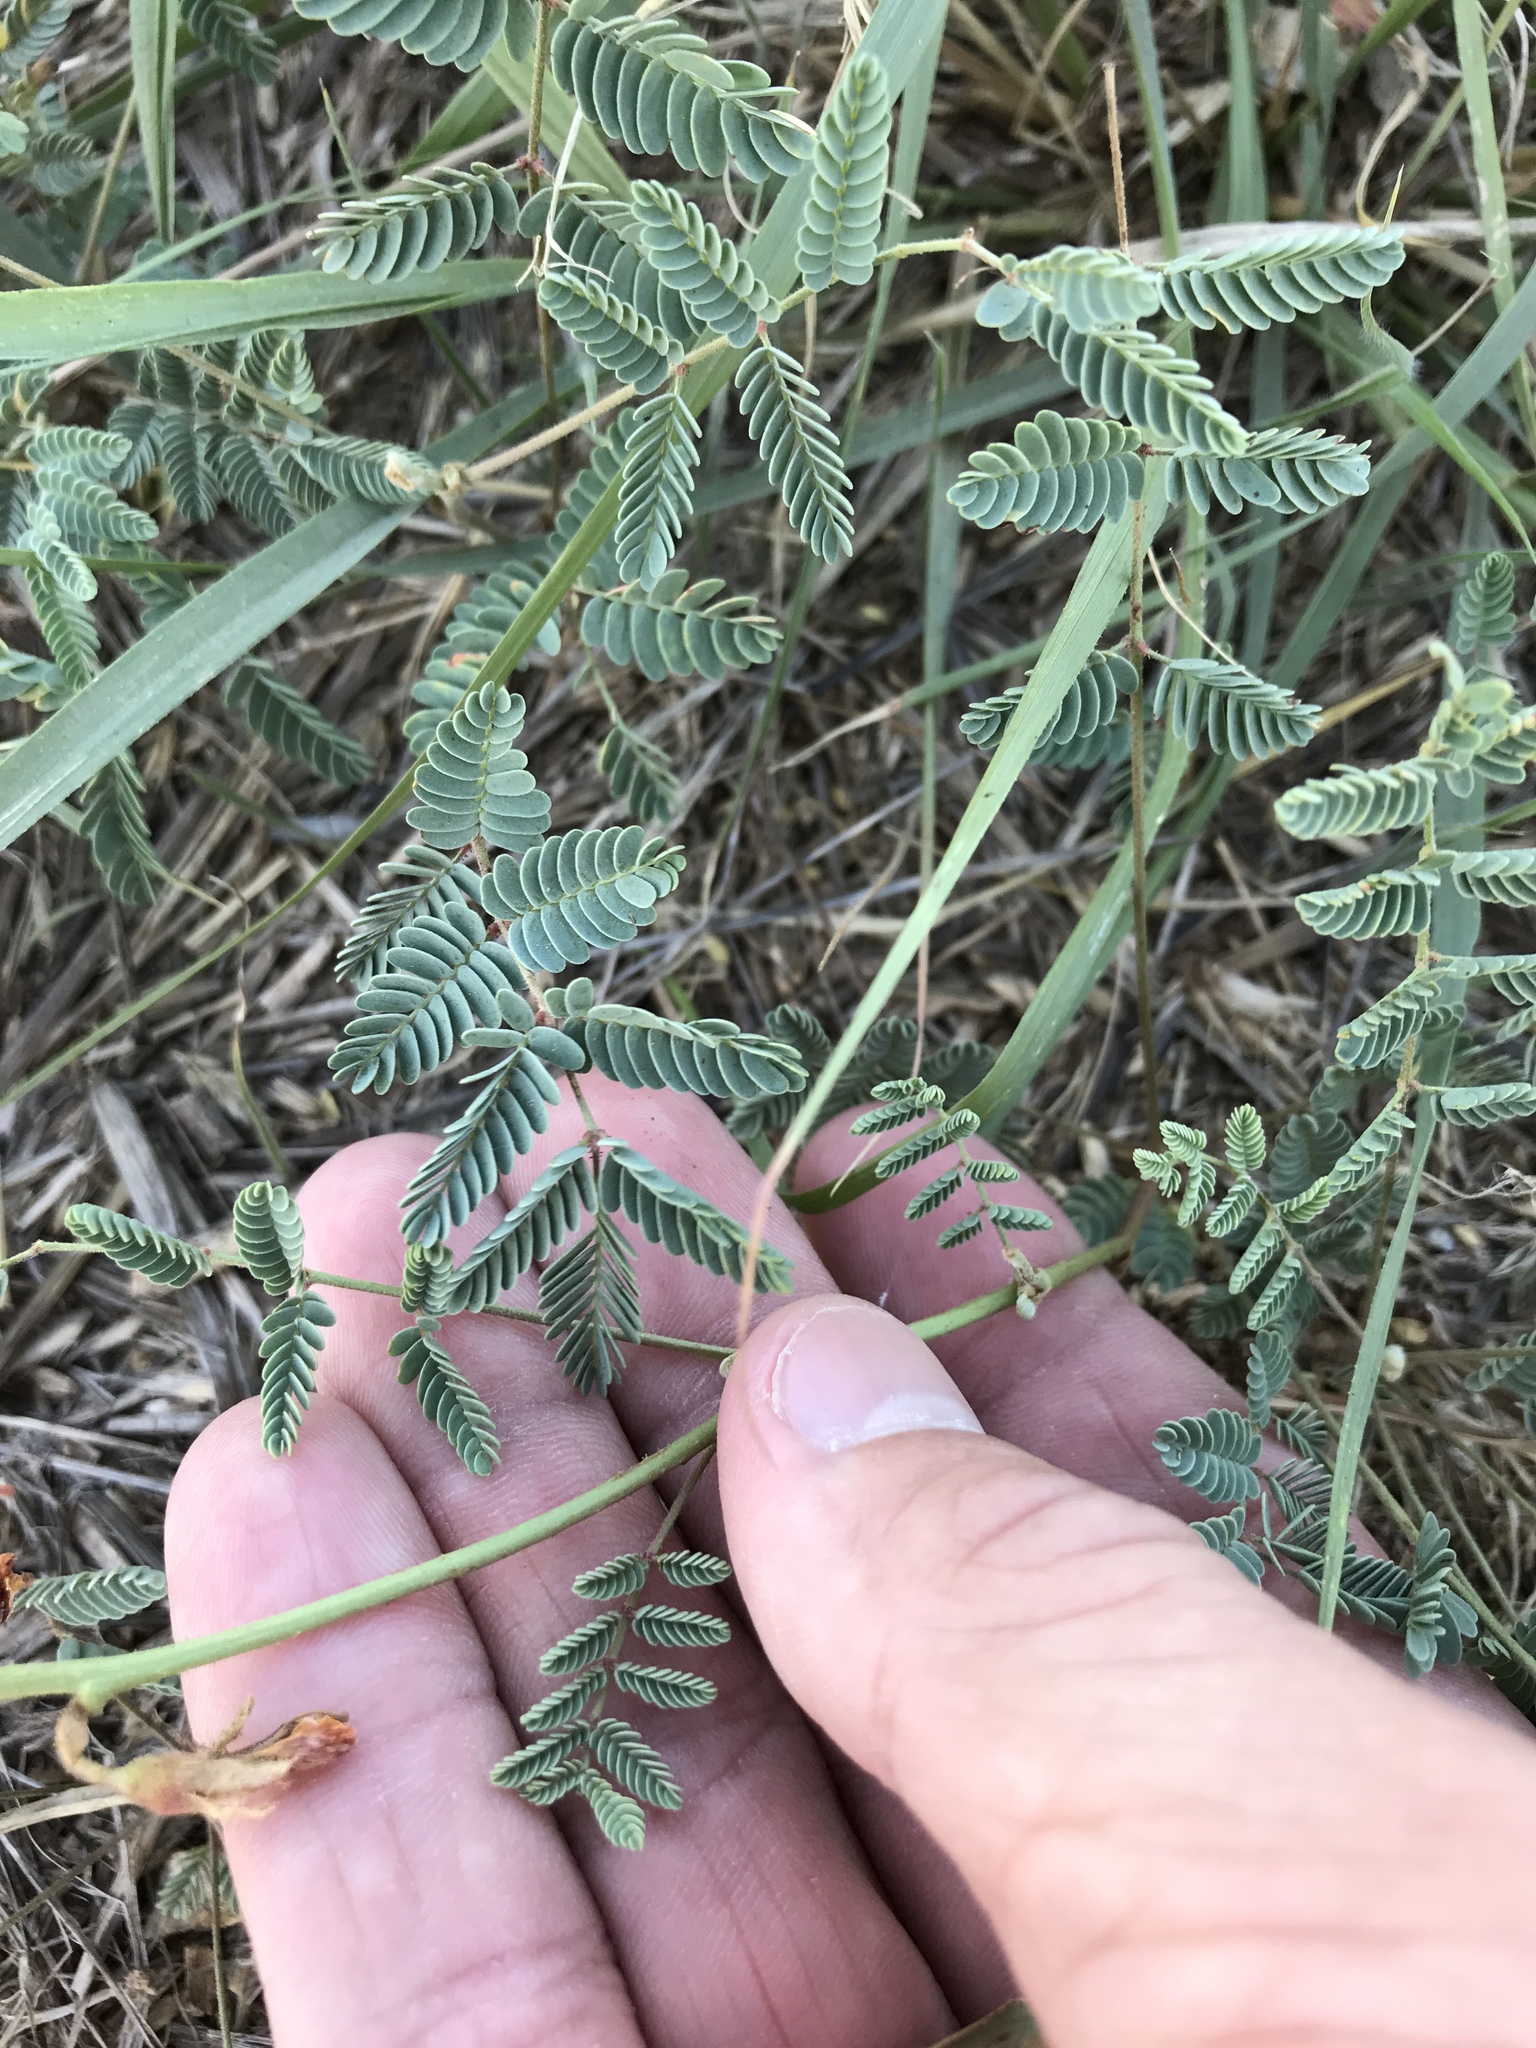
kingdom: Plantae
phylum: Tracheophyta
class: Magnoliopsida
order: Fabales
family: Fabaceae
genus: Hoffmannseggia
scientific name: Hoffmannseggia glauca
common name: Pignut
